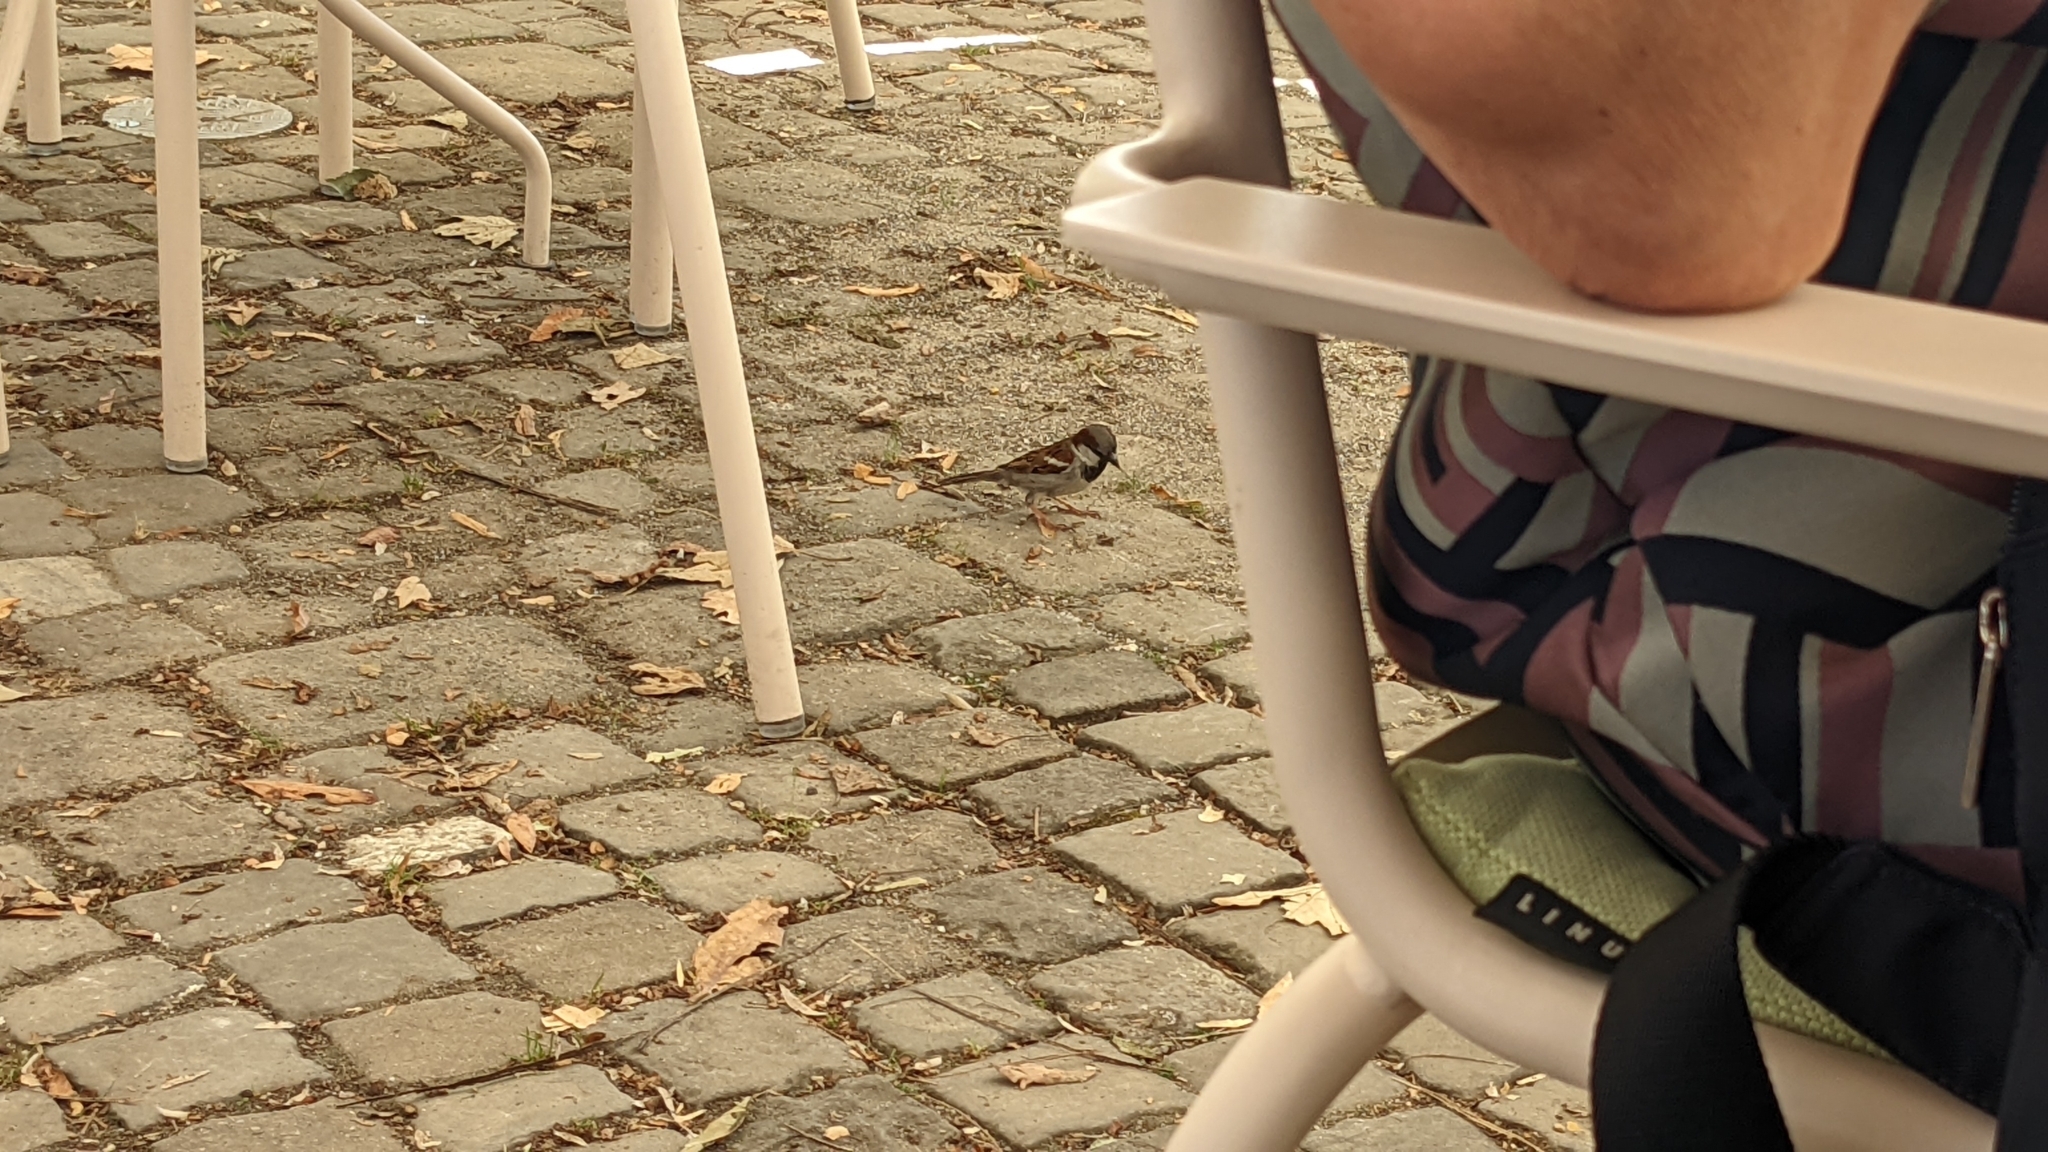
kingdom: Animalia
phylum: Chordata
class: Aves
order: Passeriformes
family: Passeridae
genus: Passer
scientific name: Passer domesticus
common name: House sparrow
